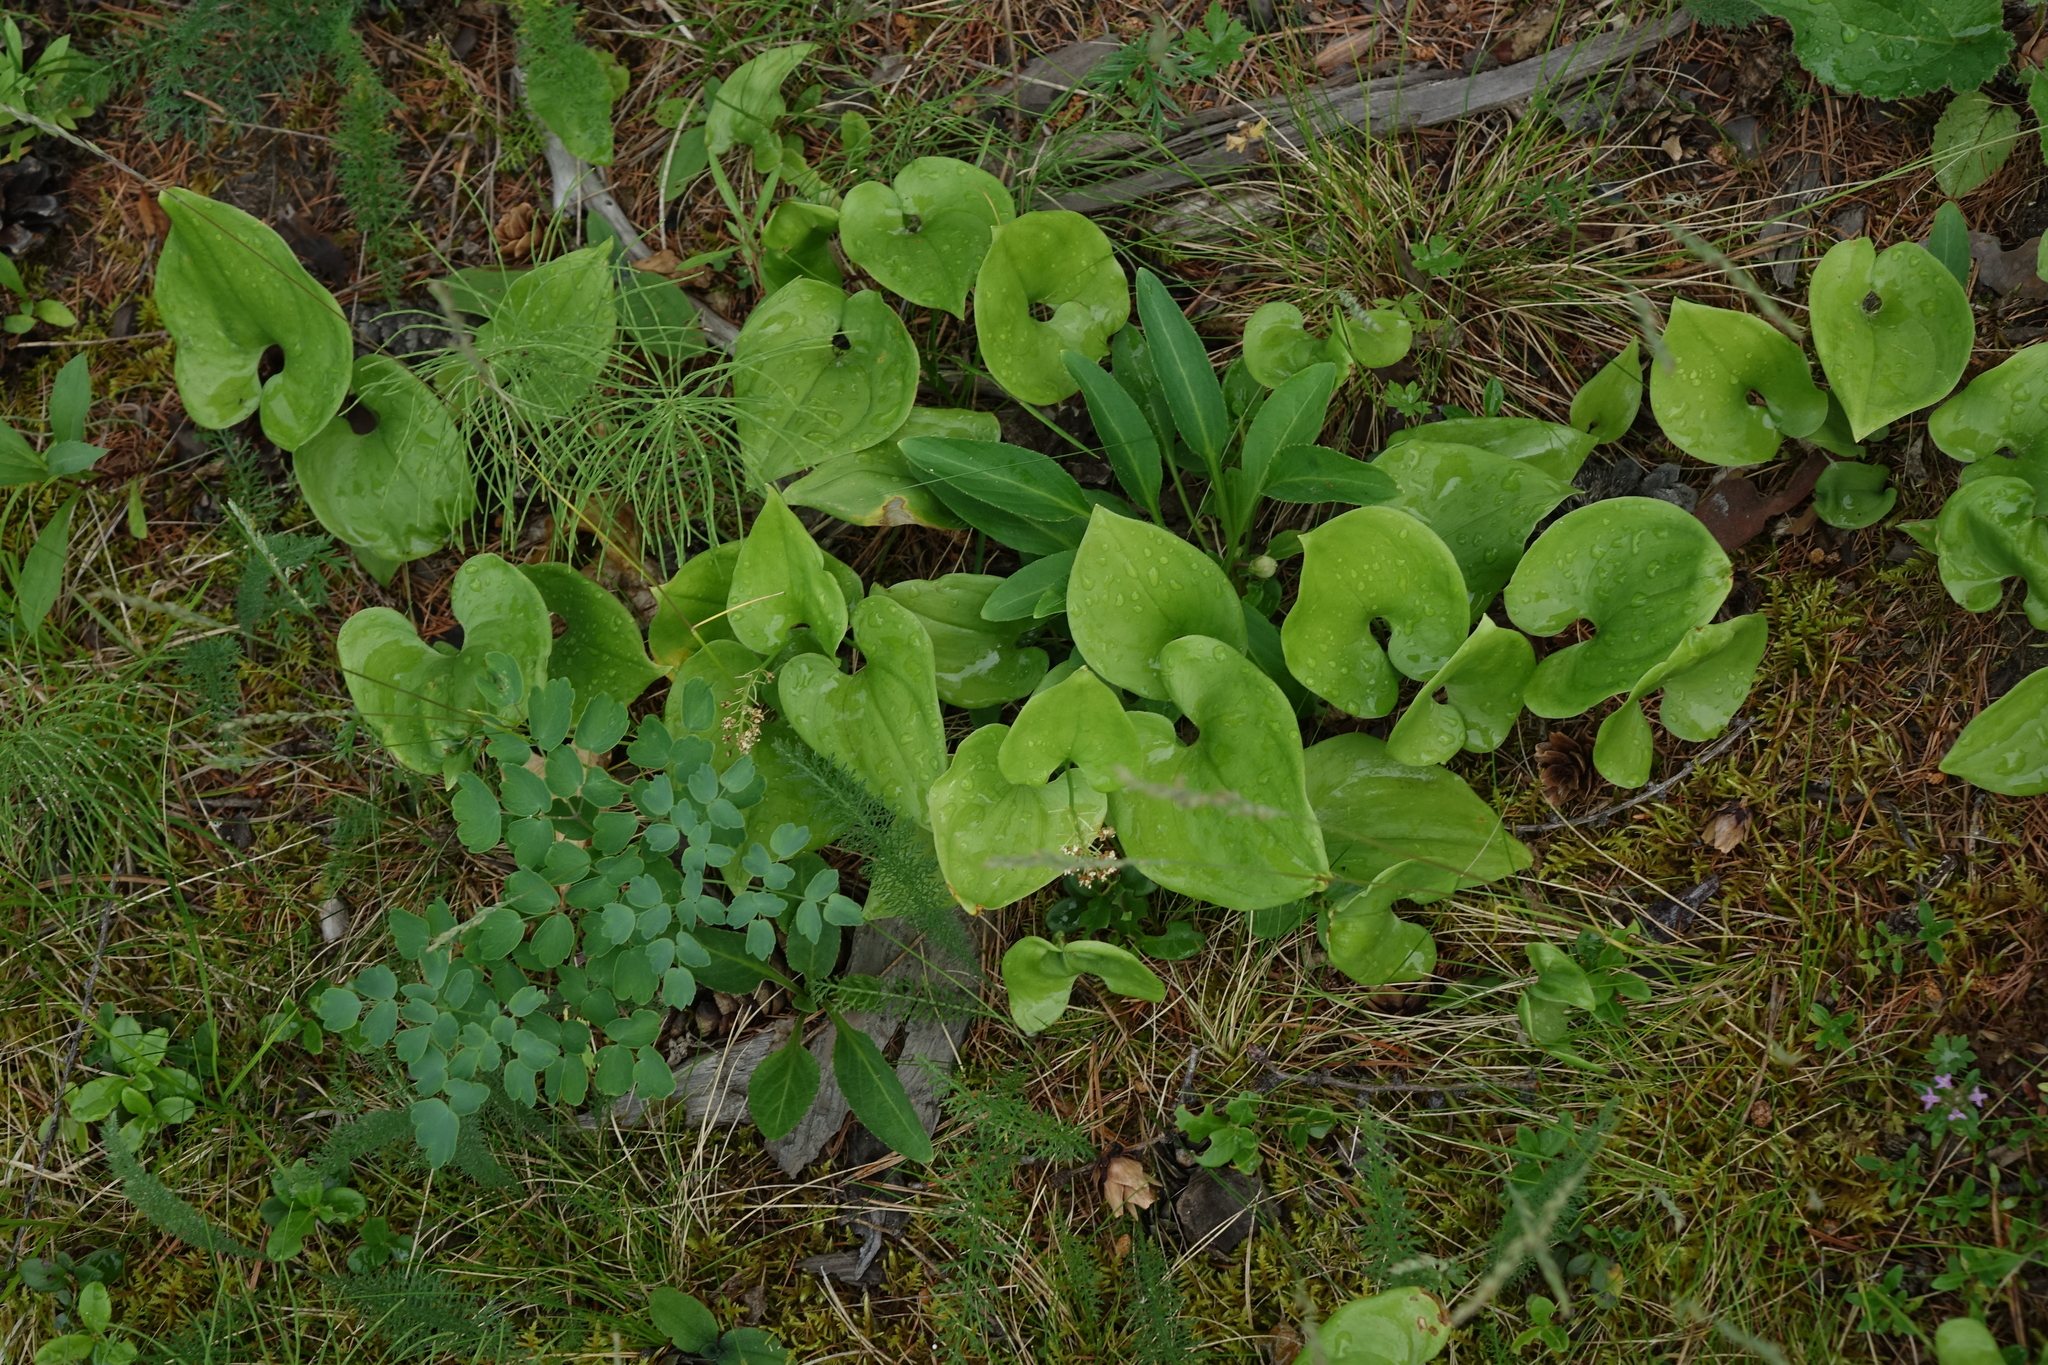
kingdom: Plantae
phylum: Tracheophyta
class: Liliopsida
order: Asparagales
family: Asparagaceae
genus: Maianthemum
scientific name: Maianthemum bifolium
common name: May lily
